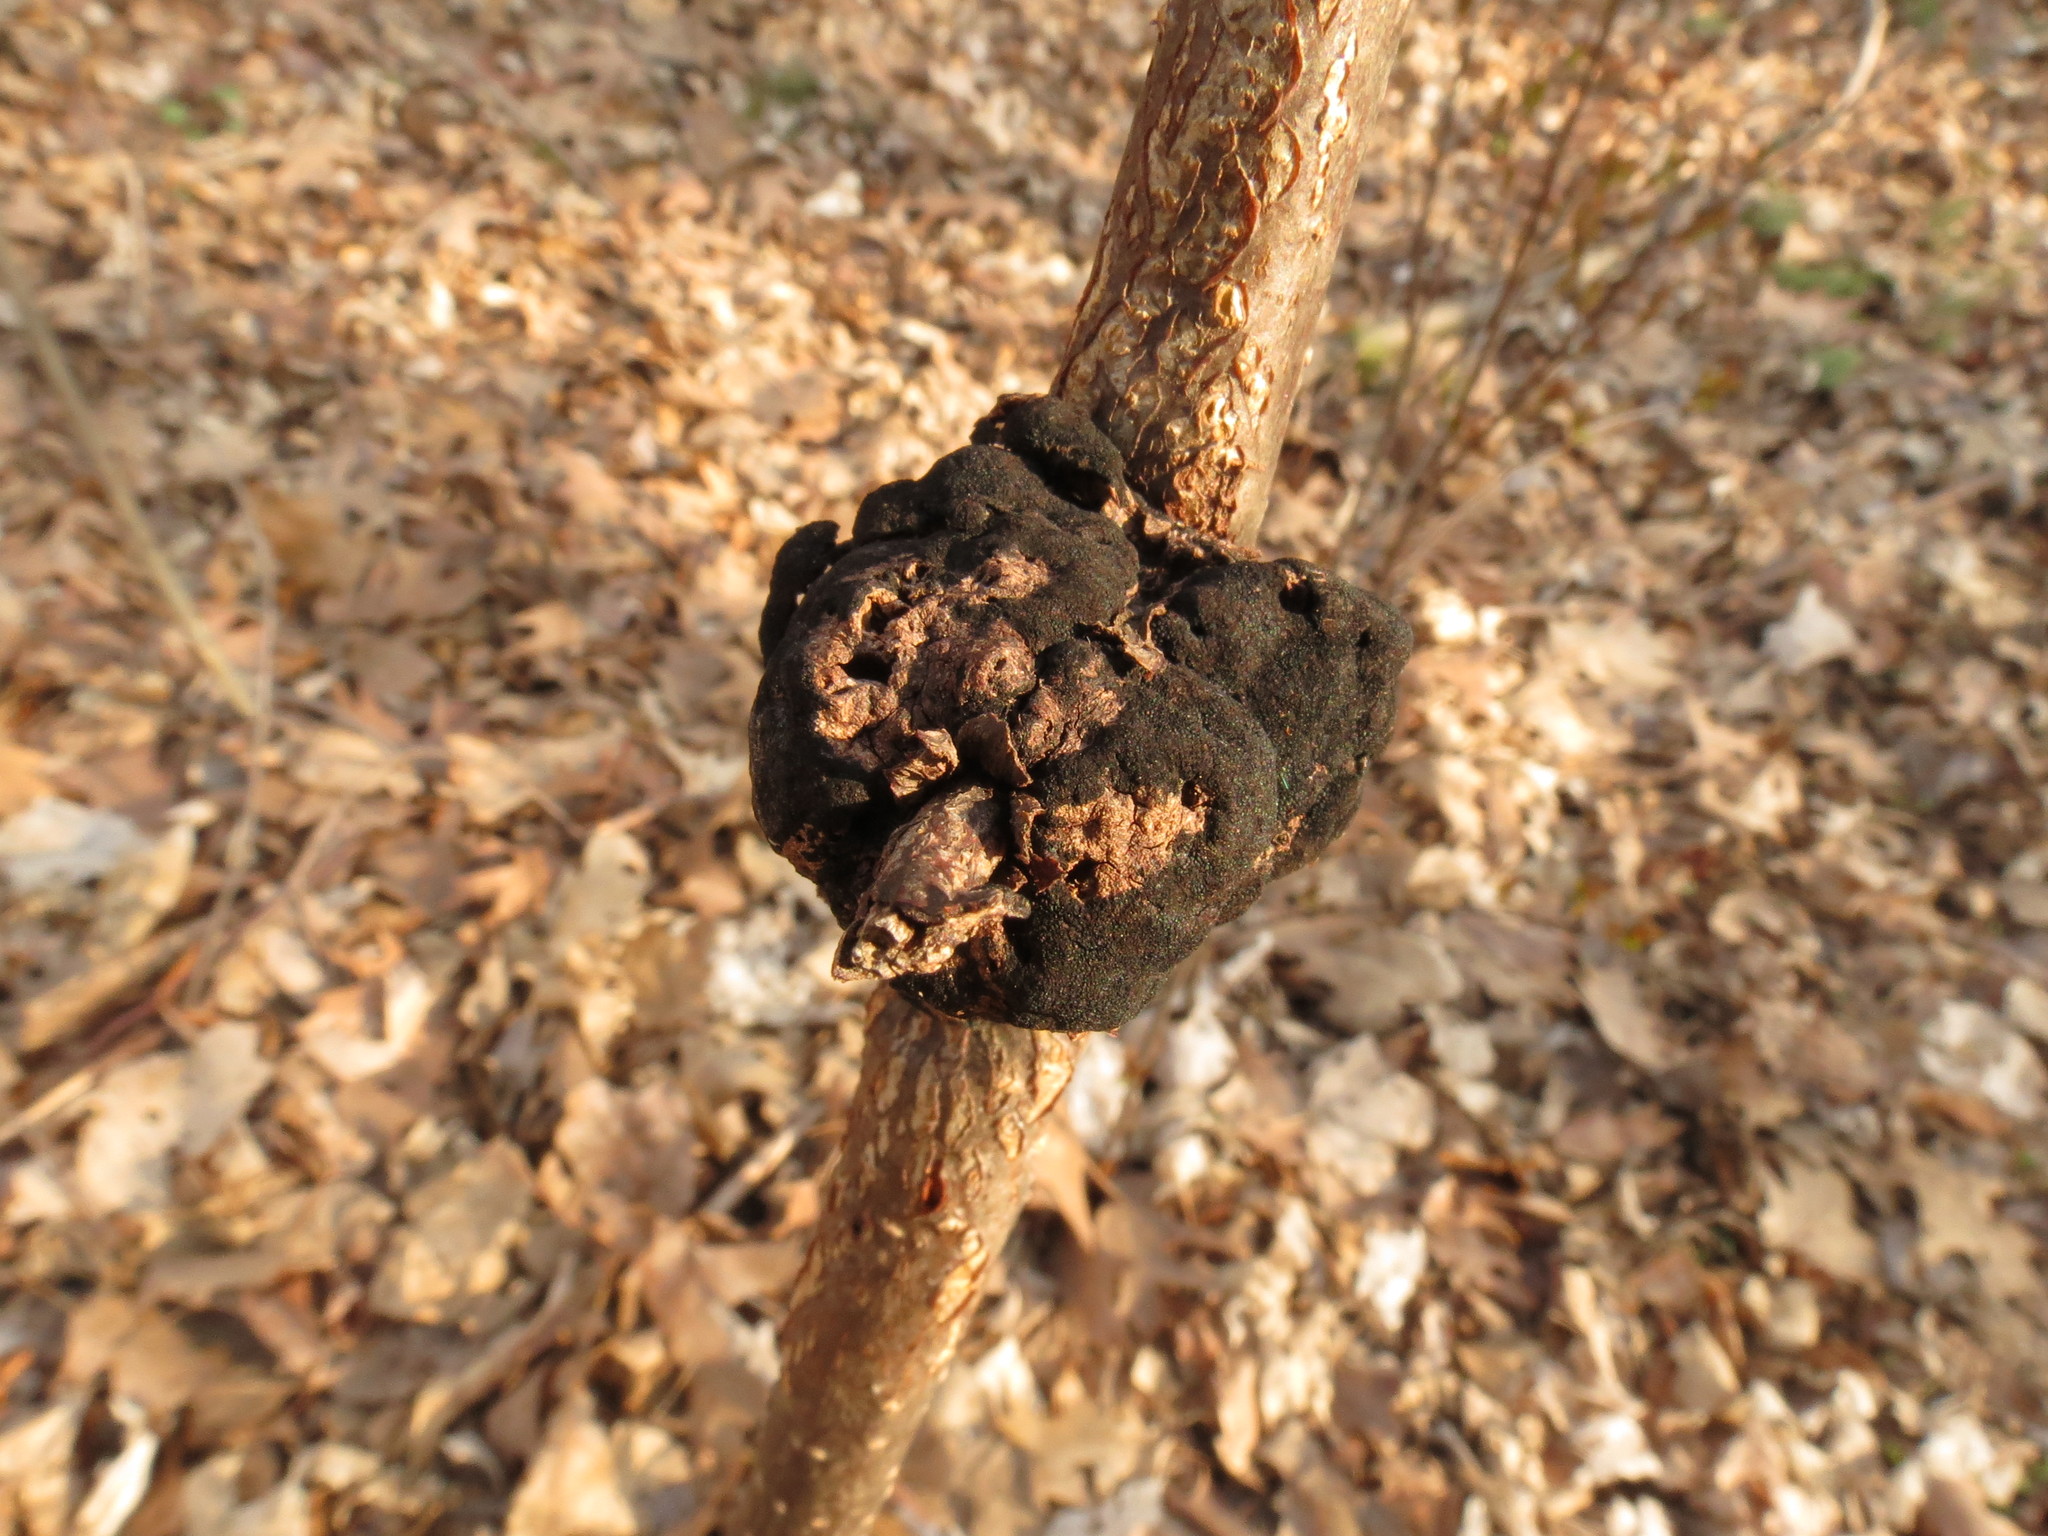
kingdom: Fungi
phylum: Ascomycota
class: Dothideomycetes
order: Venturiales
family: Venturiaceae
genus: Apiosporina
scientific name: Apiosporina morbosa
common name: Black knot
